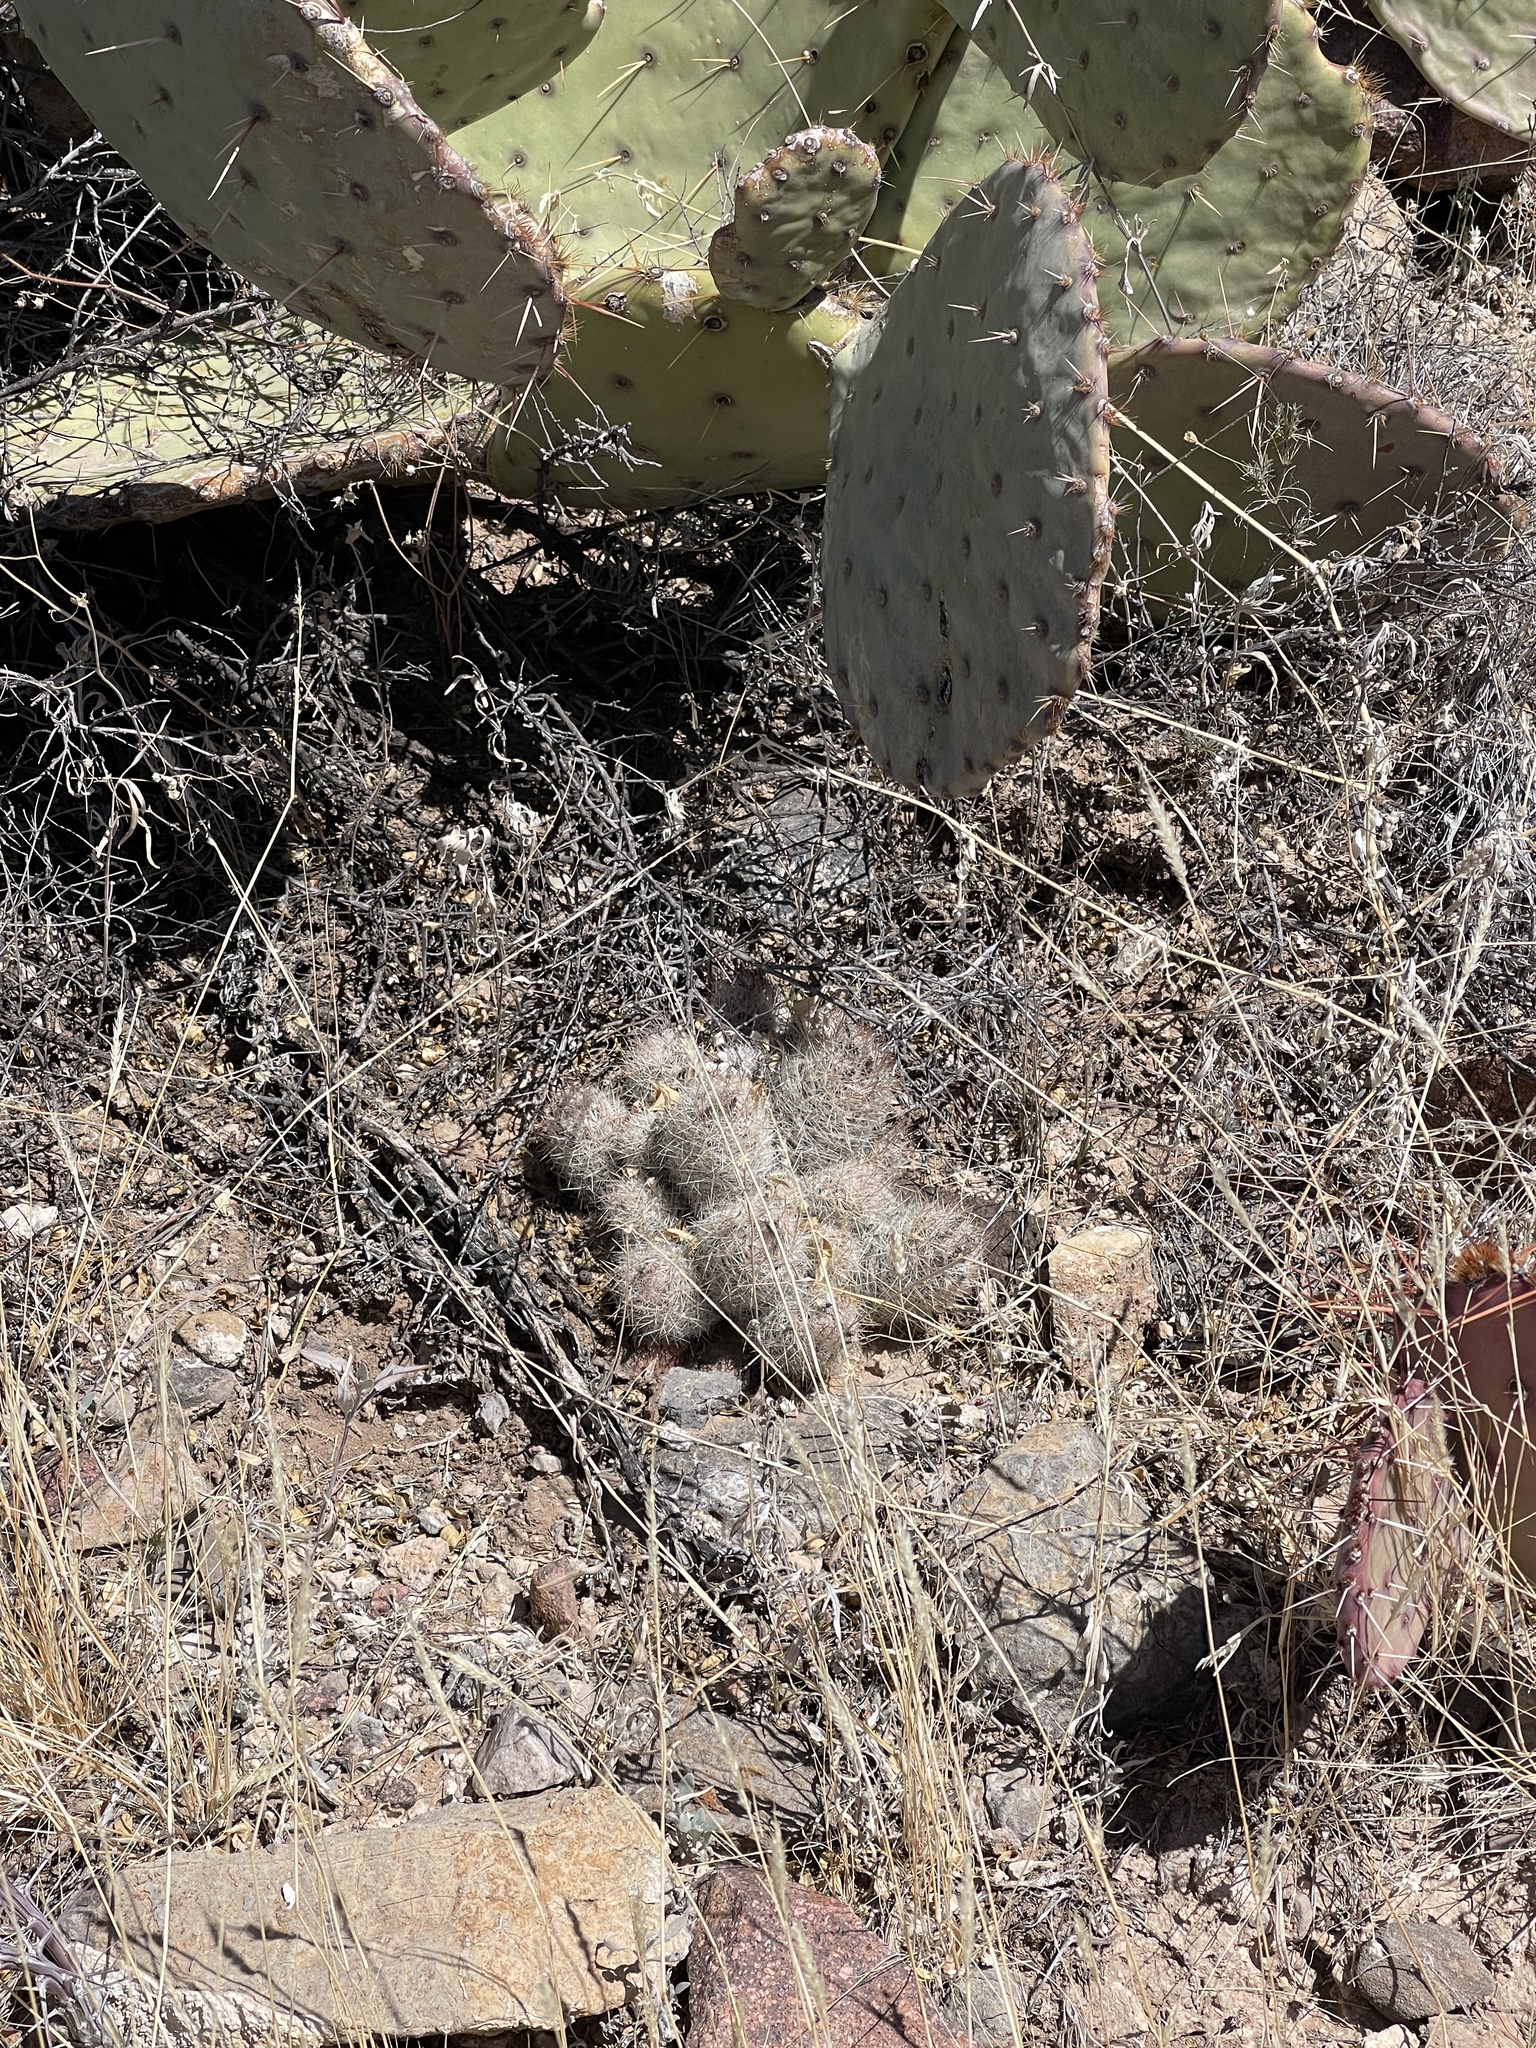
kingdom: Plantae
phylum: Tracheophyta
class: Magnoliopsida
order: Caryophyllales
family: Cactaceae
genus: Pelecyphora
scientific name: Pelecyphora tuberculosa
